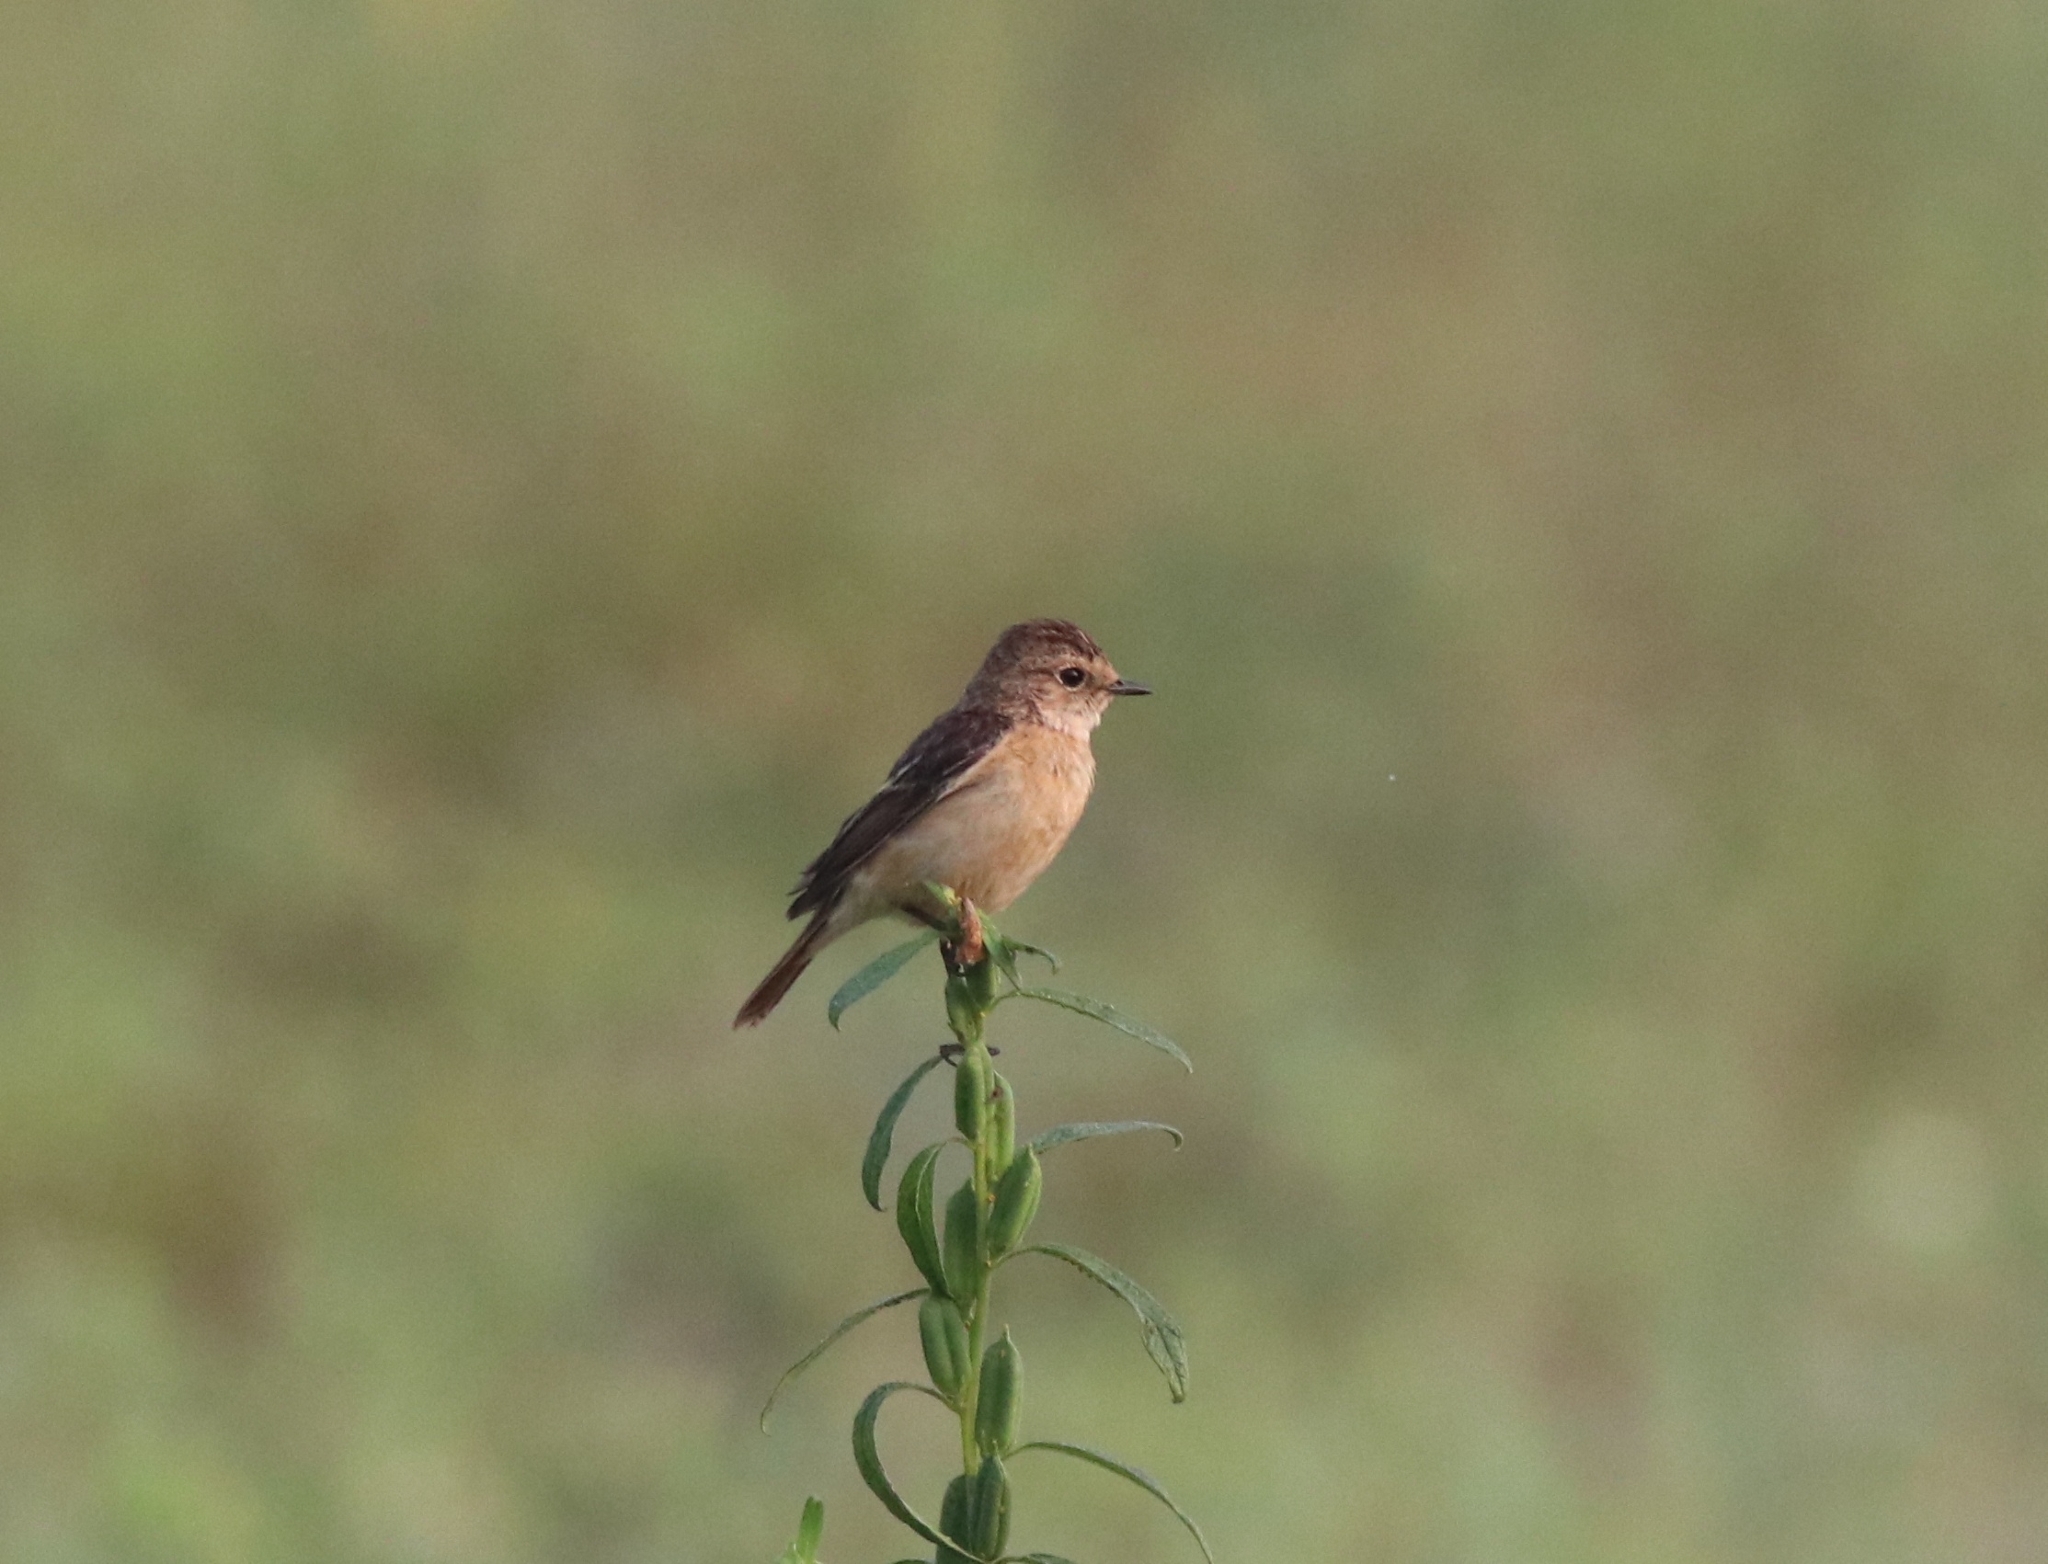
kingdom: Animalia
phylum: Chordata
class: Aves
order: Passeriformes
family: Muscicapidae
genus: Saxicola
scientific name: Saxicola maurus
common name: Siberian stonechat
